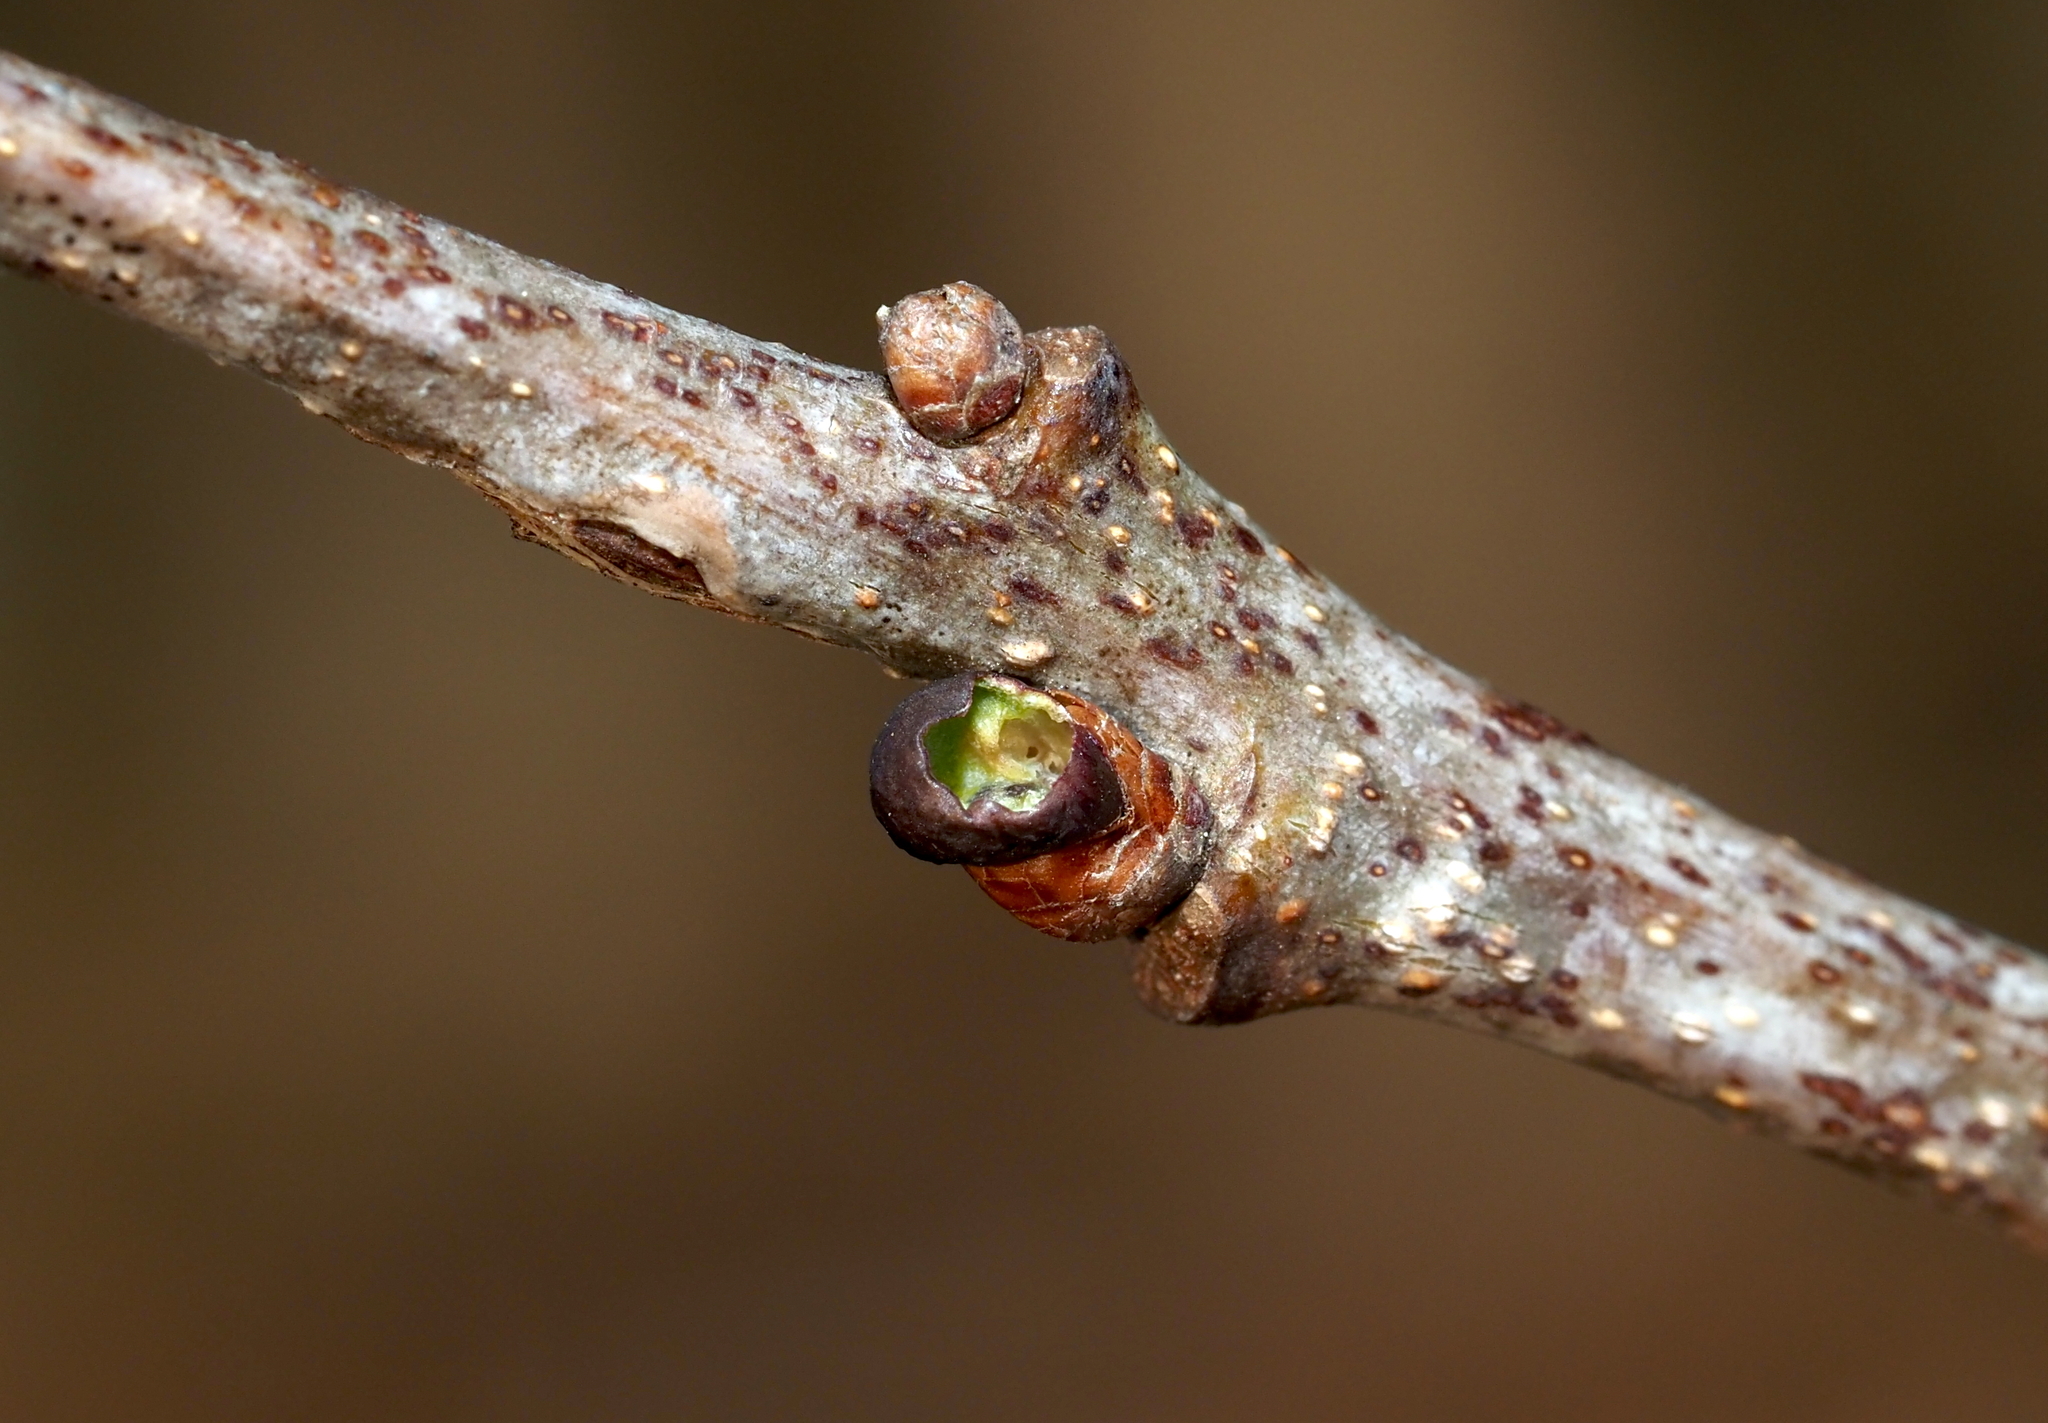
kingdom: Animalia
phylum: Arthropoda
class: Insecta
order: Hymenoptera
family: Cynipidae
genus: Neuroterus
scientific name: Neuroterus
